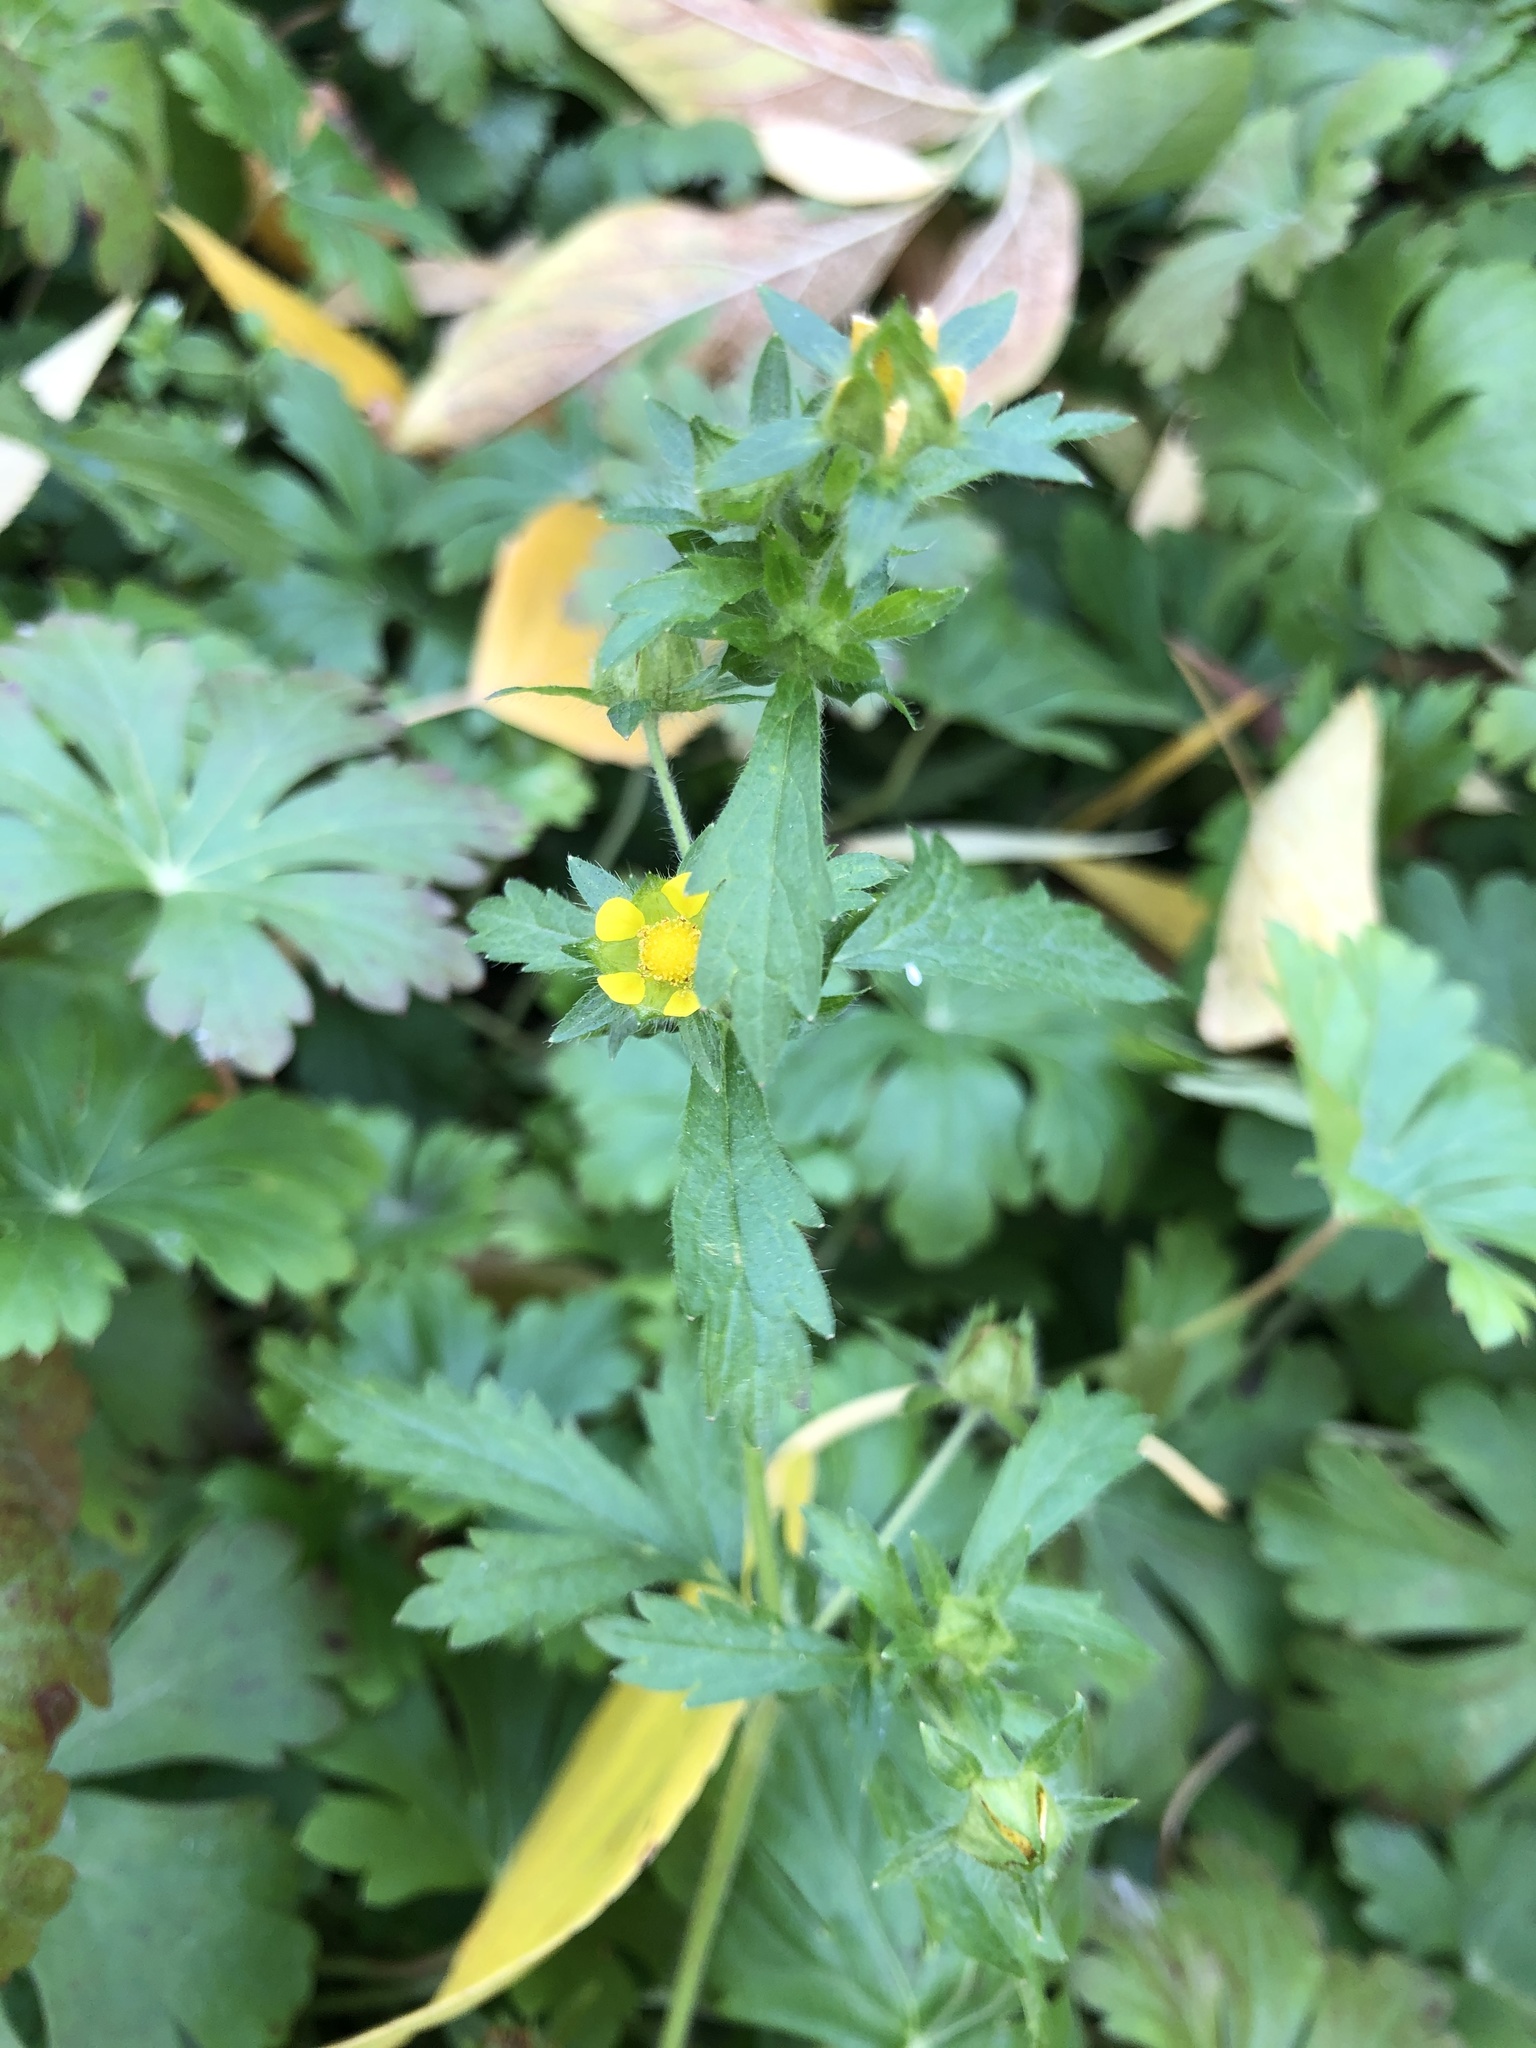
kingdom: Plantae
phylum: Tracheophyta
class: Magnoliopsida
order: Rosales
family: Rosaceae
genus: Potentilla
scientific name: Potentilla norvegica
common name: Ternate-leaved cinquefoil
